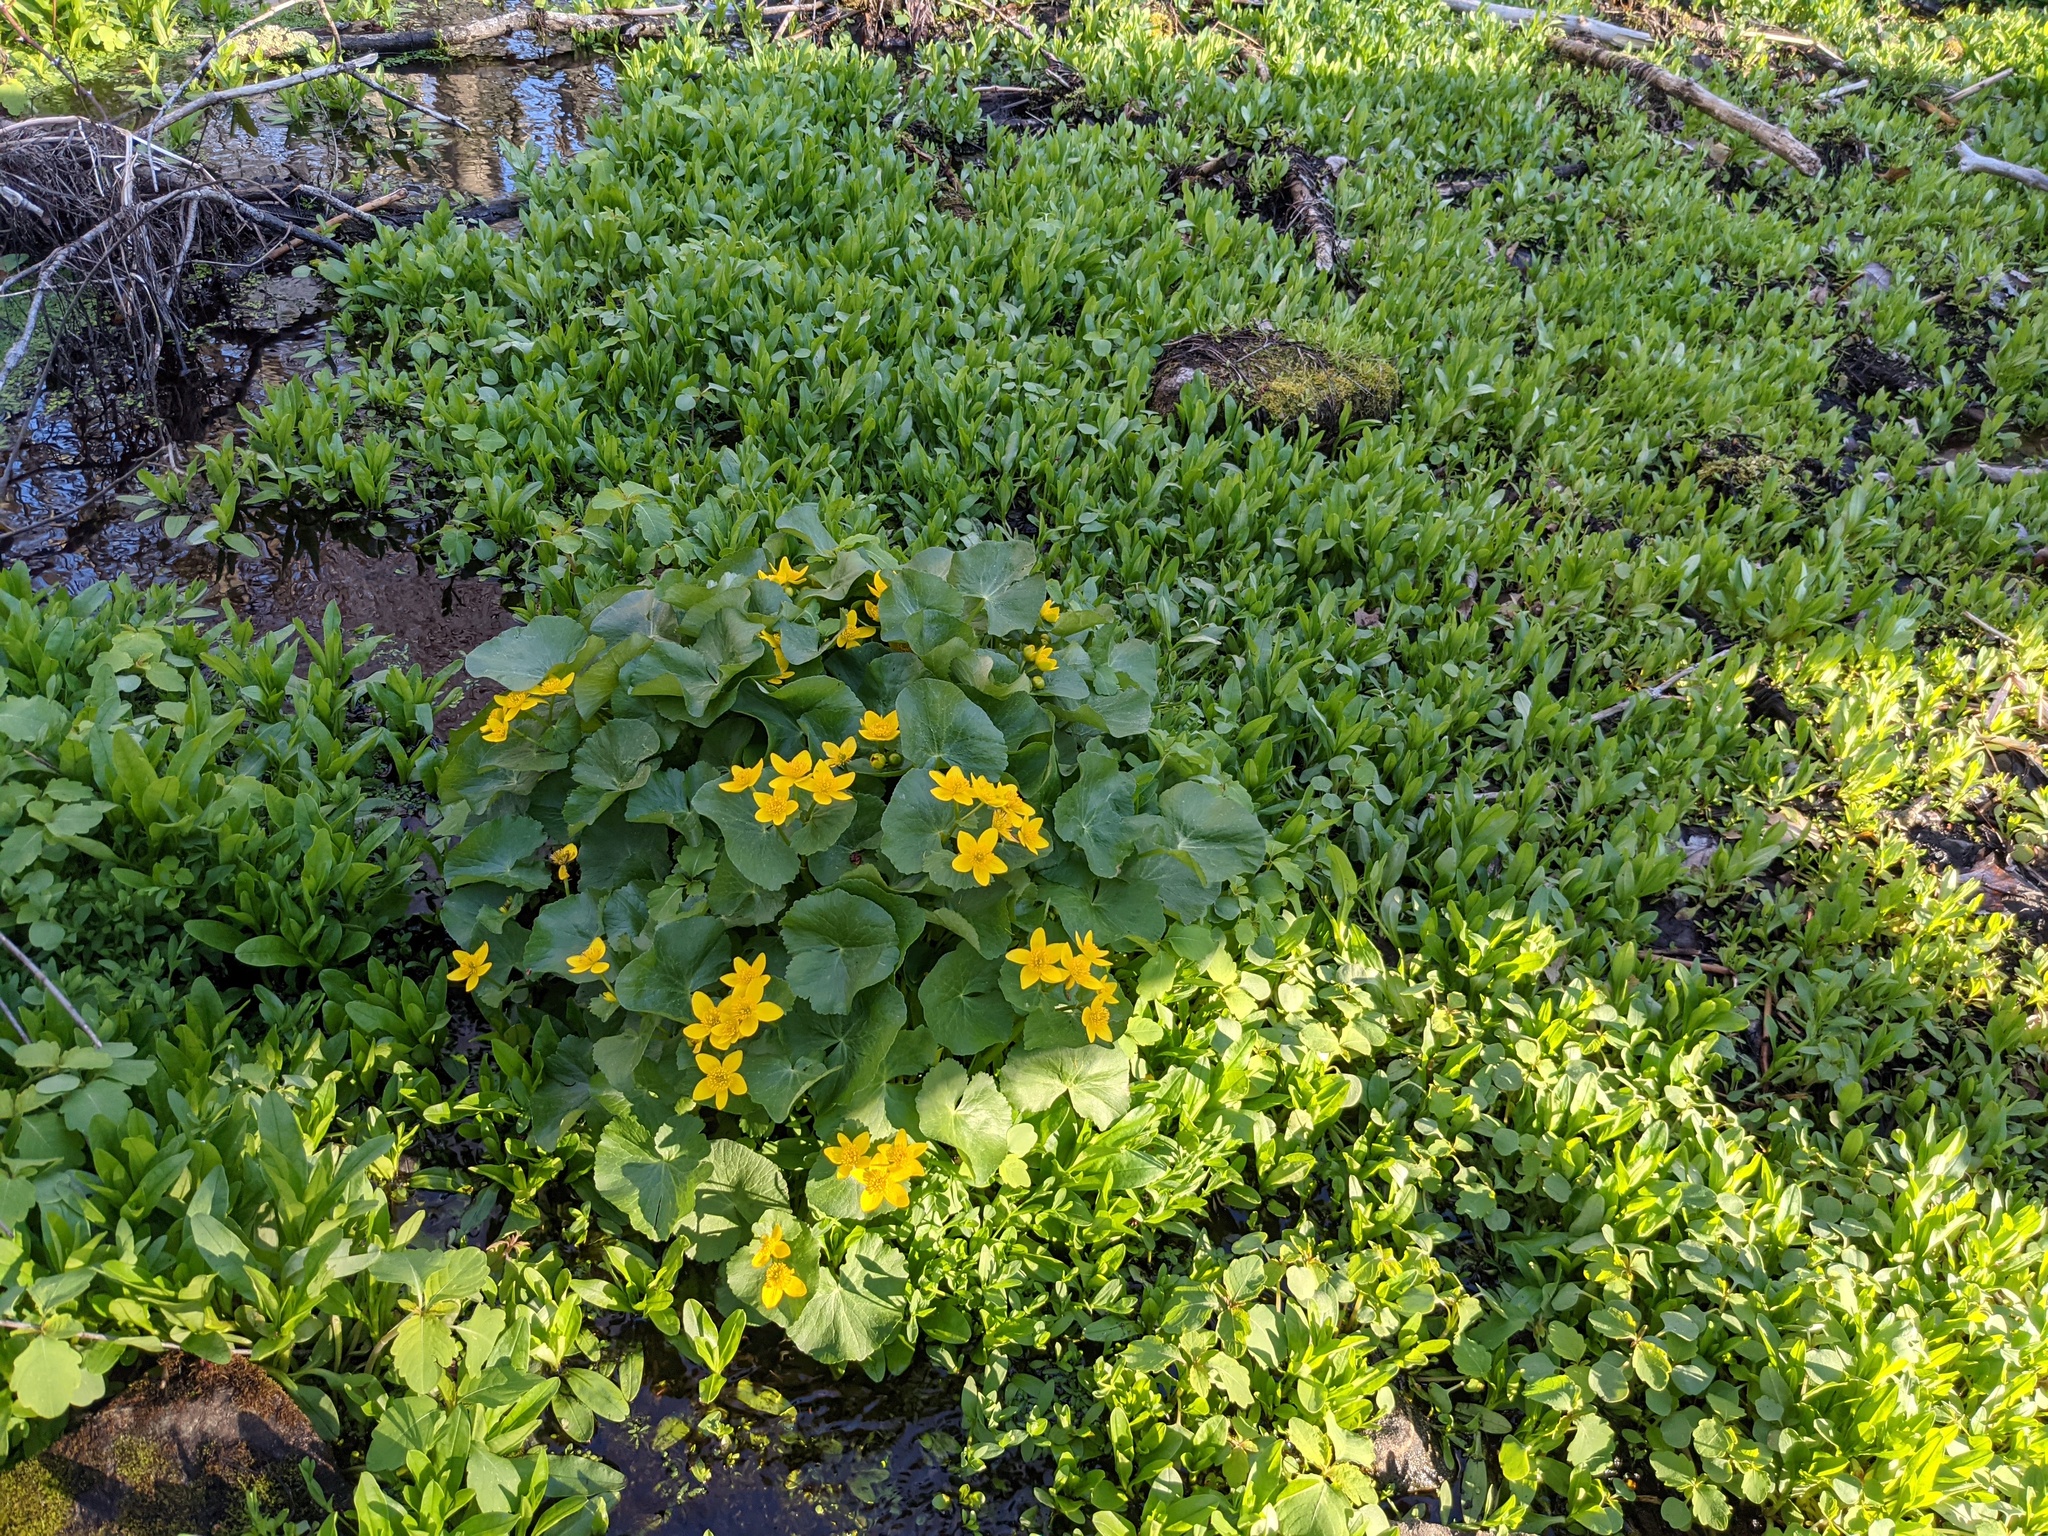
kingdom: Plantae
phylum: Tracheophyta
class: Magnoliopsida
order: Ranunculales
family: Ranunculaceae
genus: Caltha
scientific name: Caltha palustris
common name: Marsh marigold
